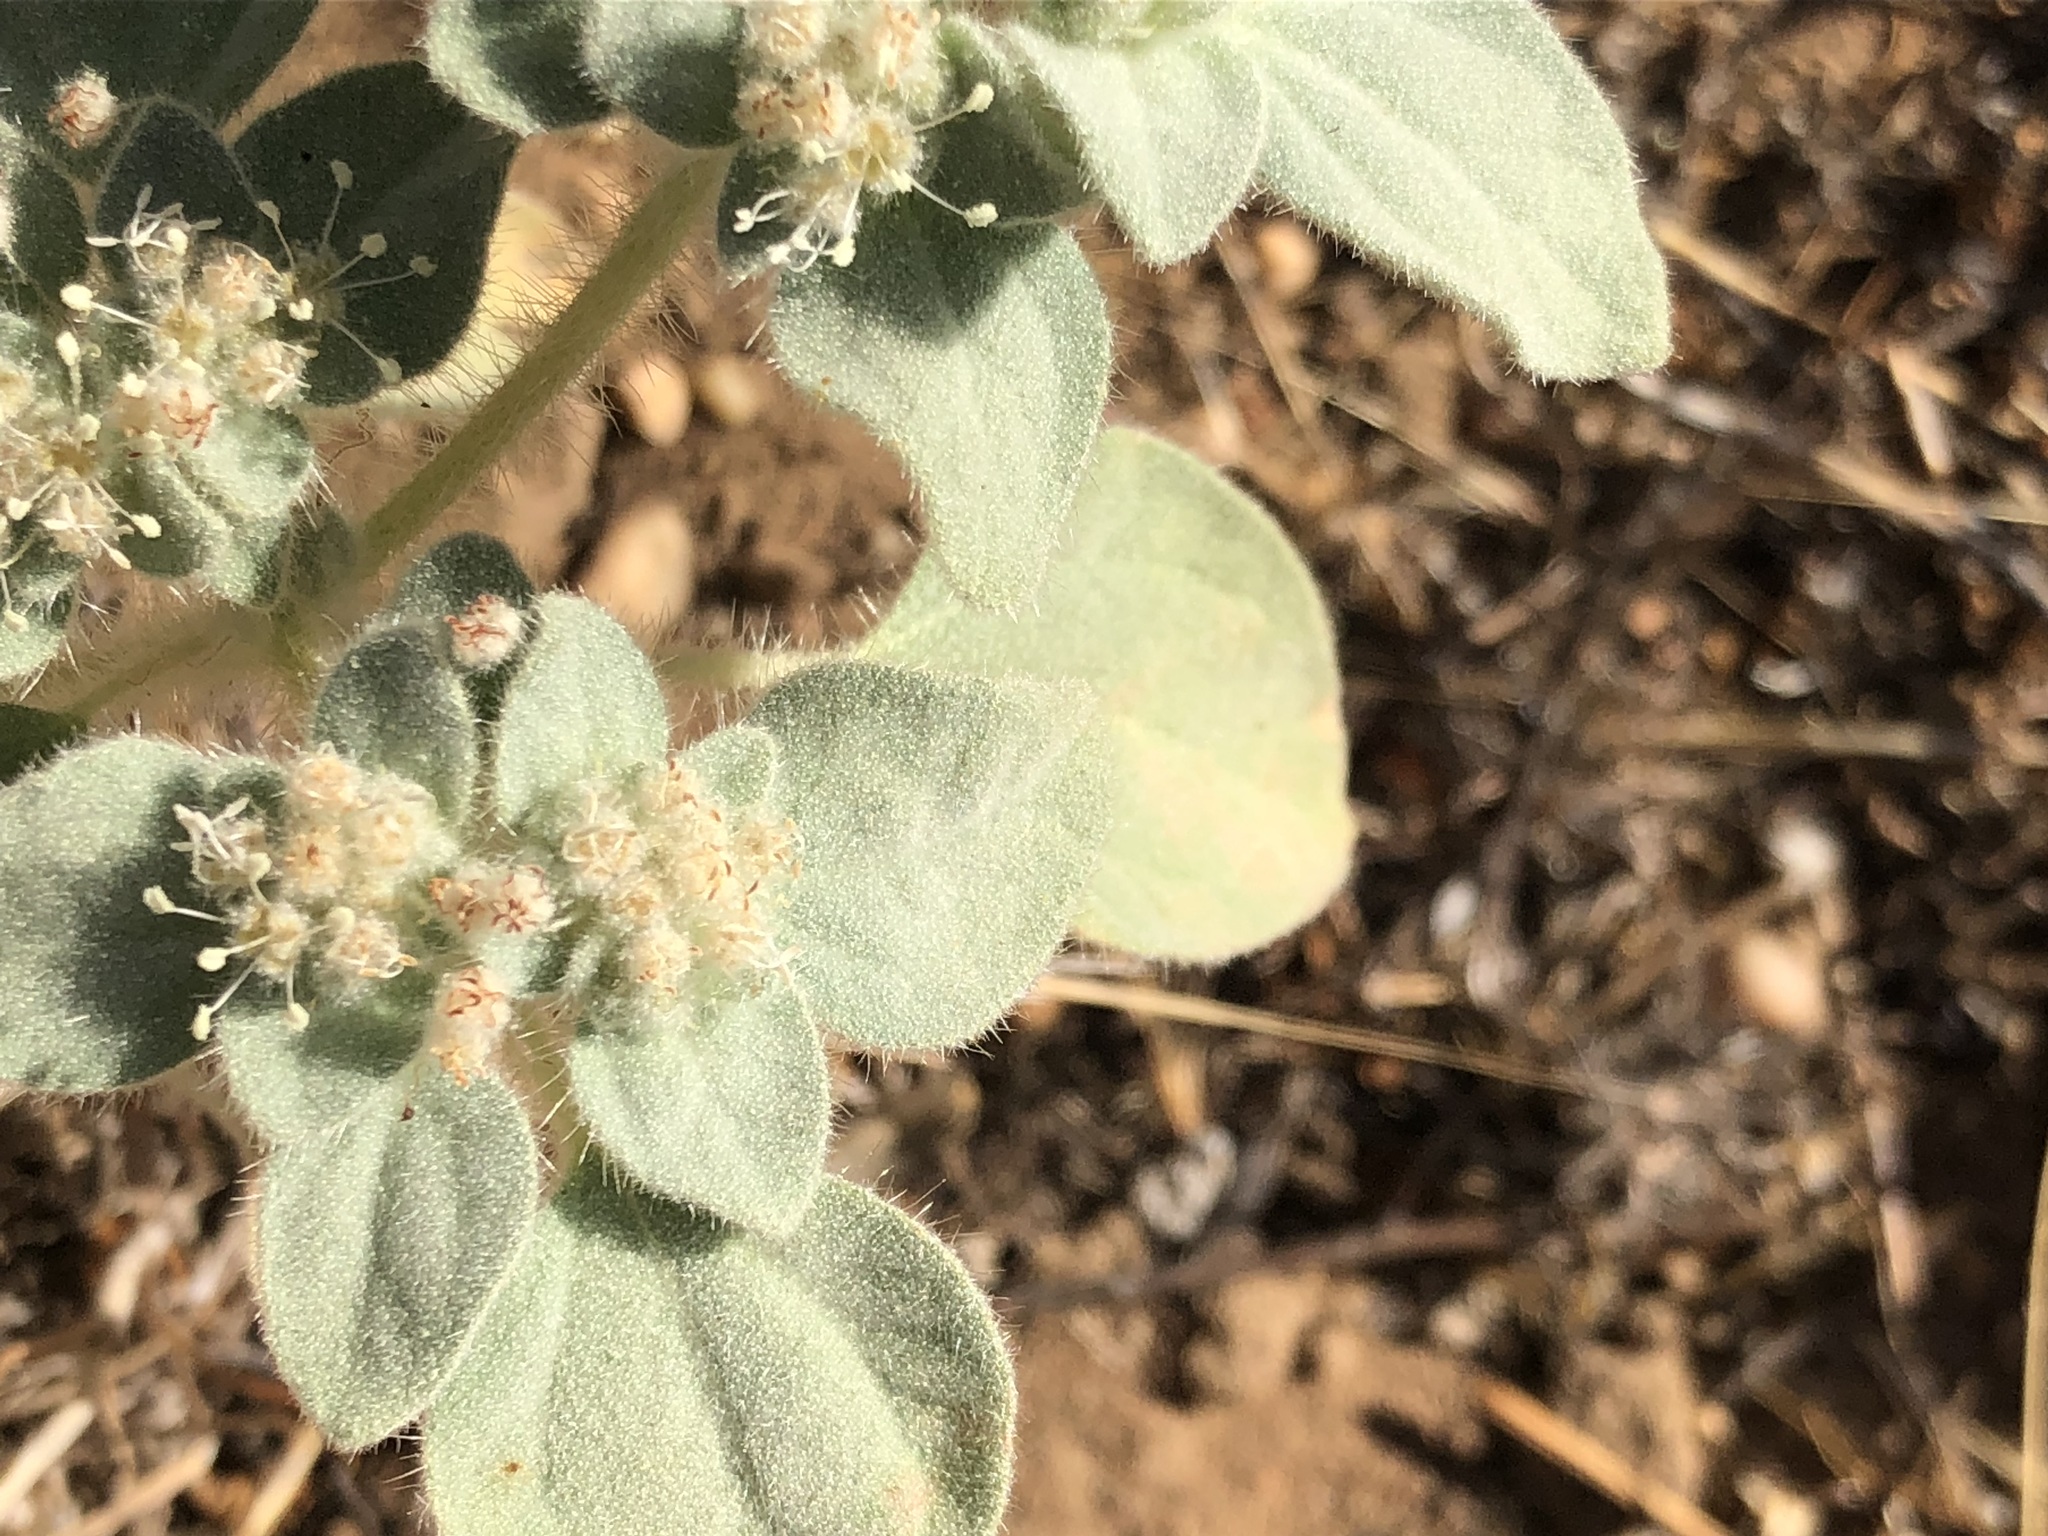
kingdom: Plantae
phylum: Tracheophyta
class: Magnoliopsida
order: Malpighiales
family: Euphorbiaceae
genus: Croton
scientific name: Croton setiger
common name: Dove weed
